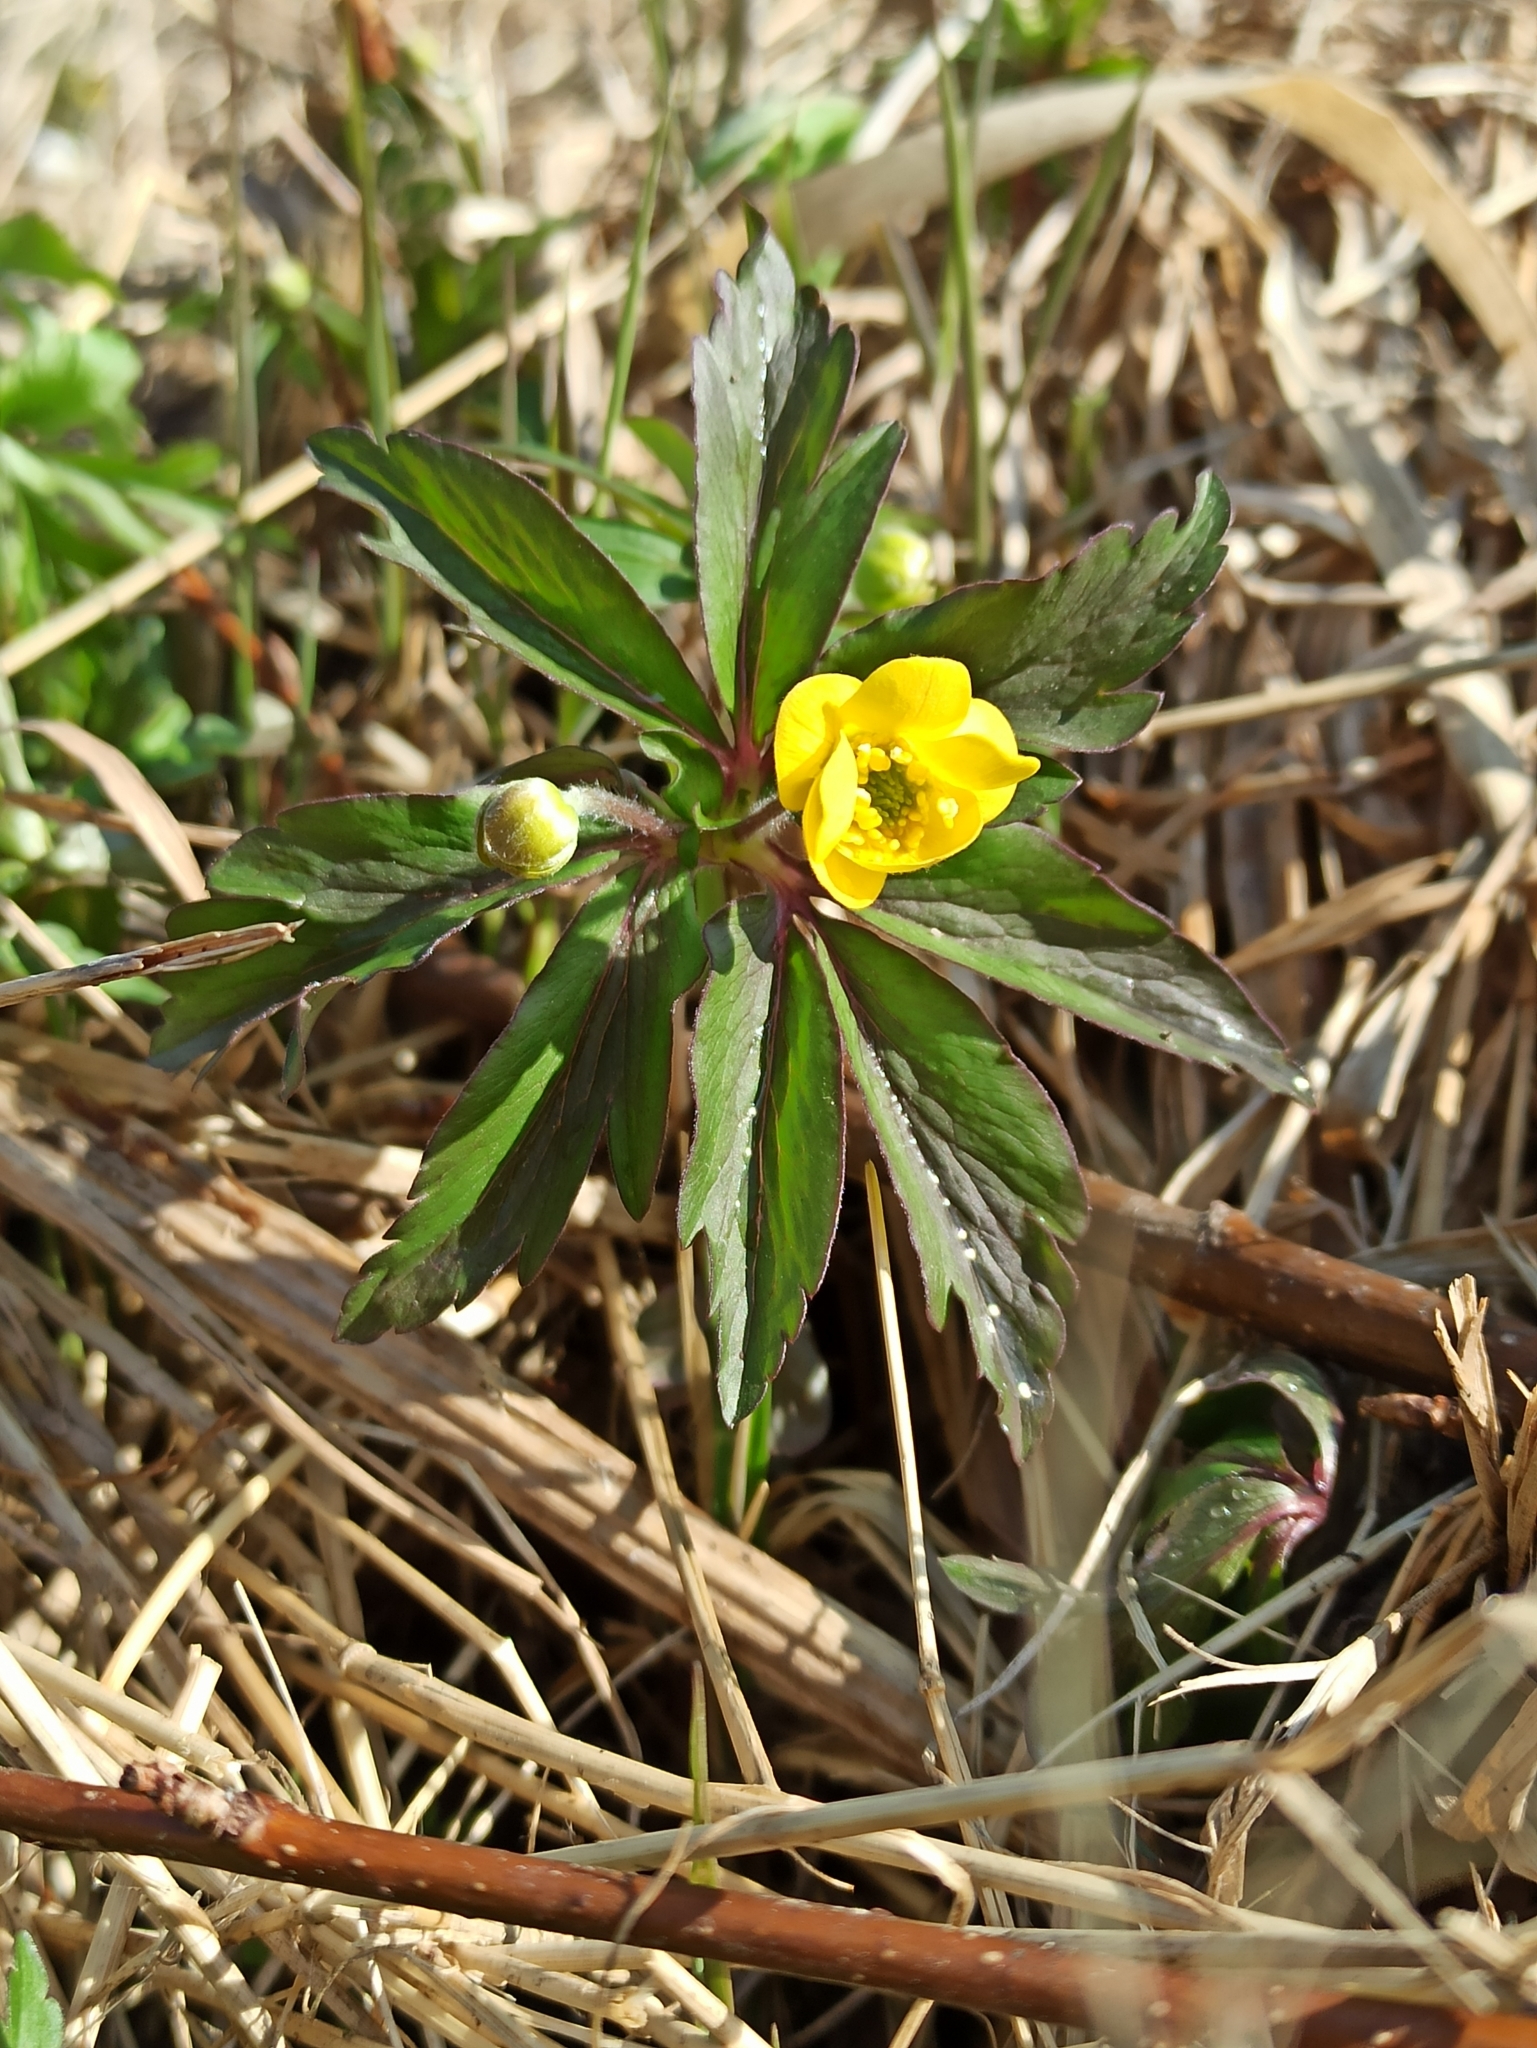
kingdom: Plantae
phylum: Tracheophyta
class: Magnoliopsida
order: Ranunculales
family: Ranunculaceae
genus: Anemone
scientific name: Anemone ranunculoides
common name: Yellow anemone
